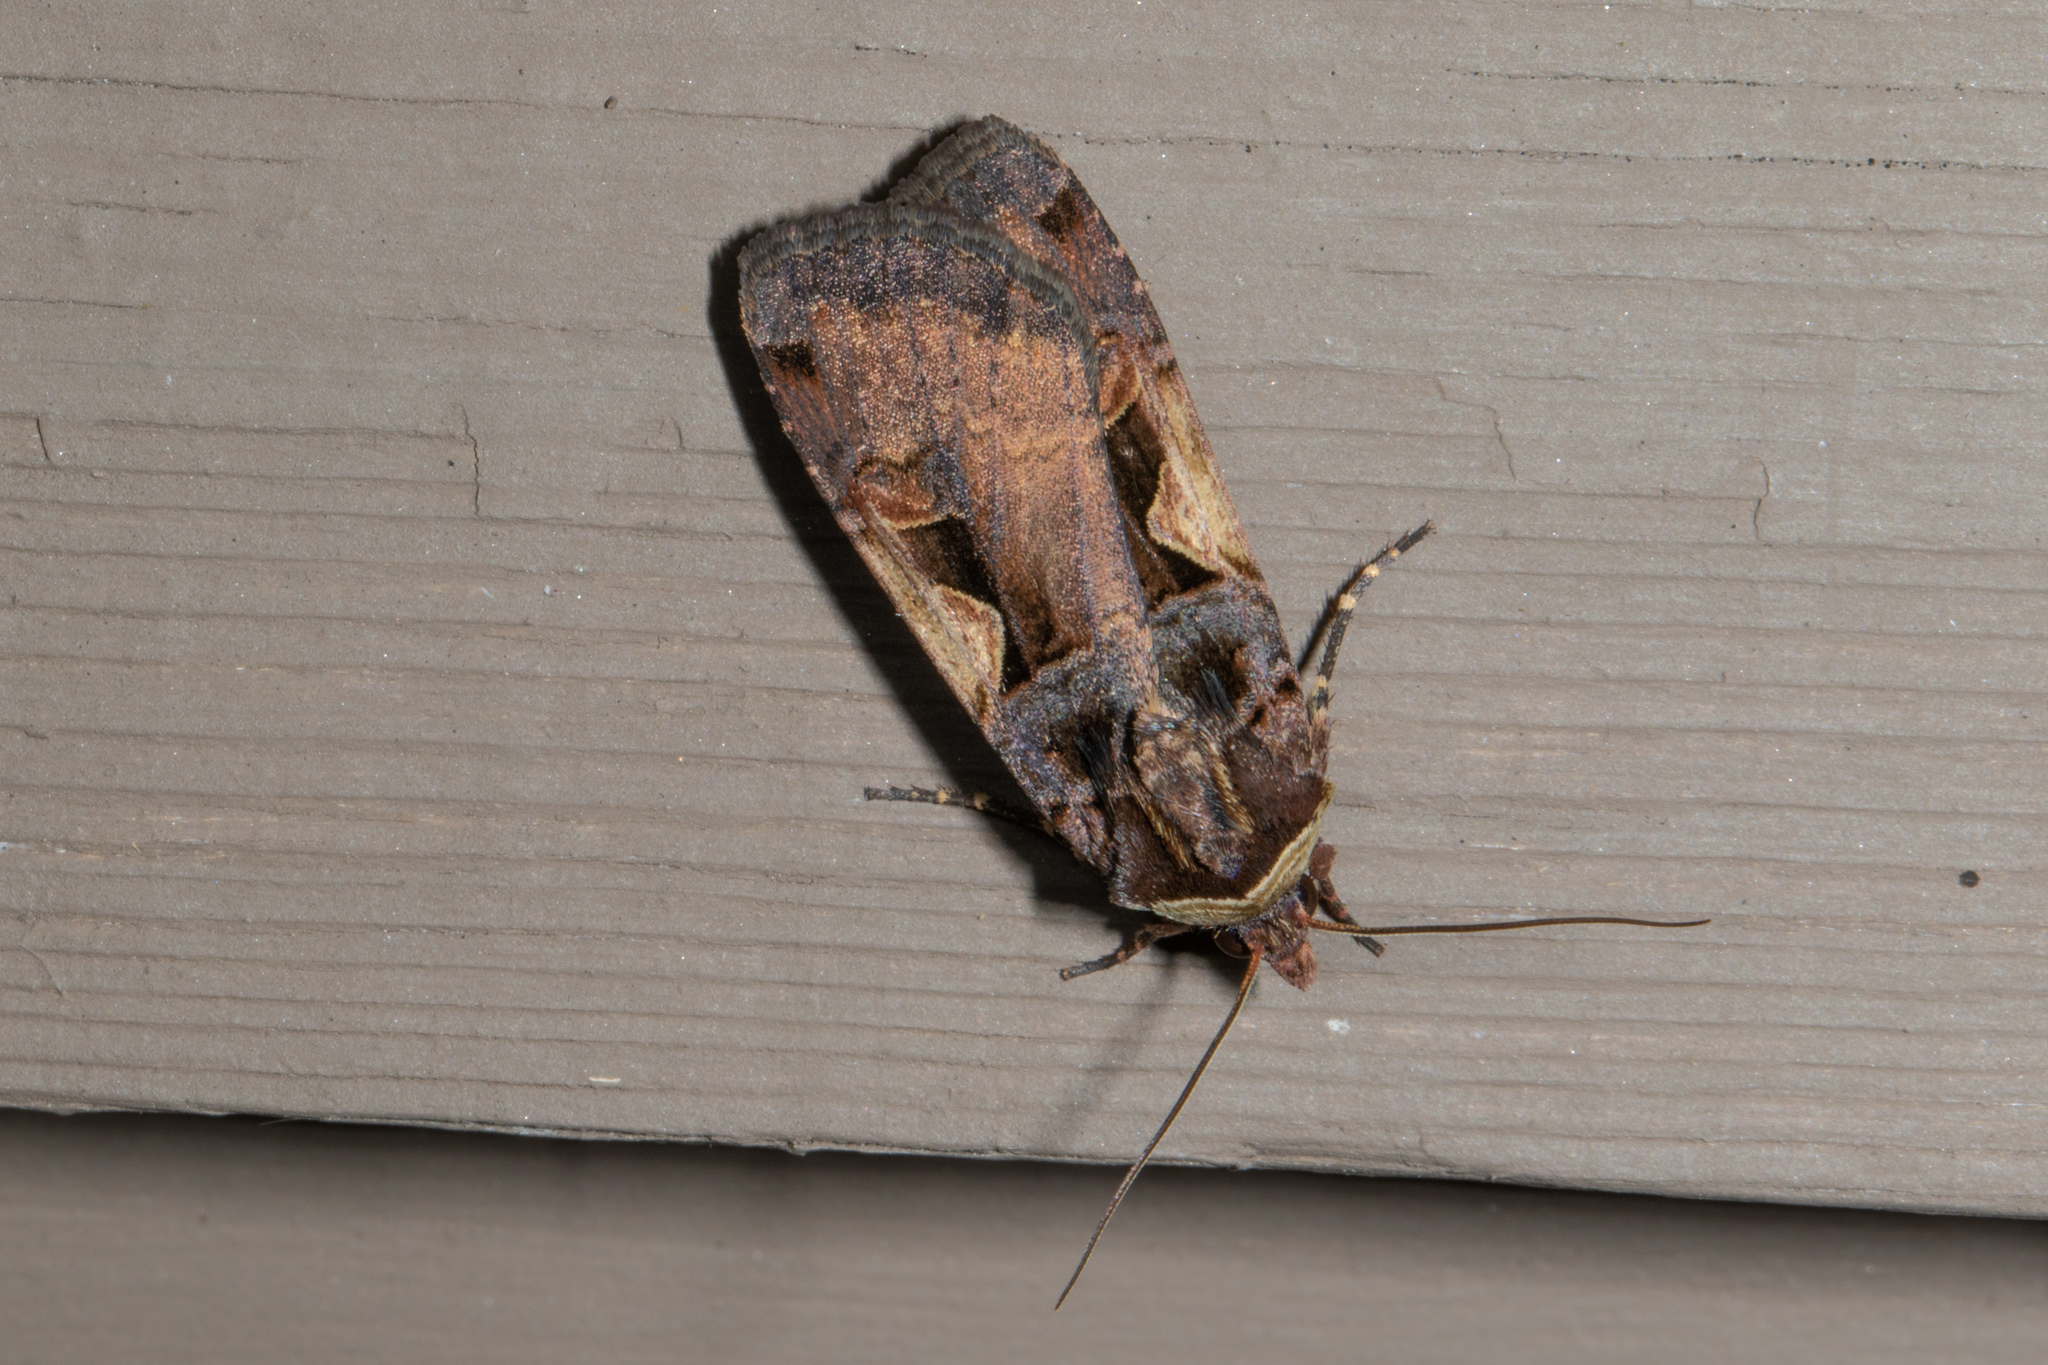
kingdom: Animalia
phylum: Arthropoda
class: Insecta
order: Lepidoptera
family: Noctuidae
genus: Xestia
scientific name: Xestia c-nigrum
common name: Setaceous hebrew character
